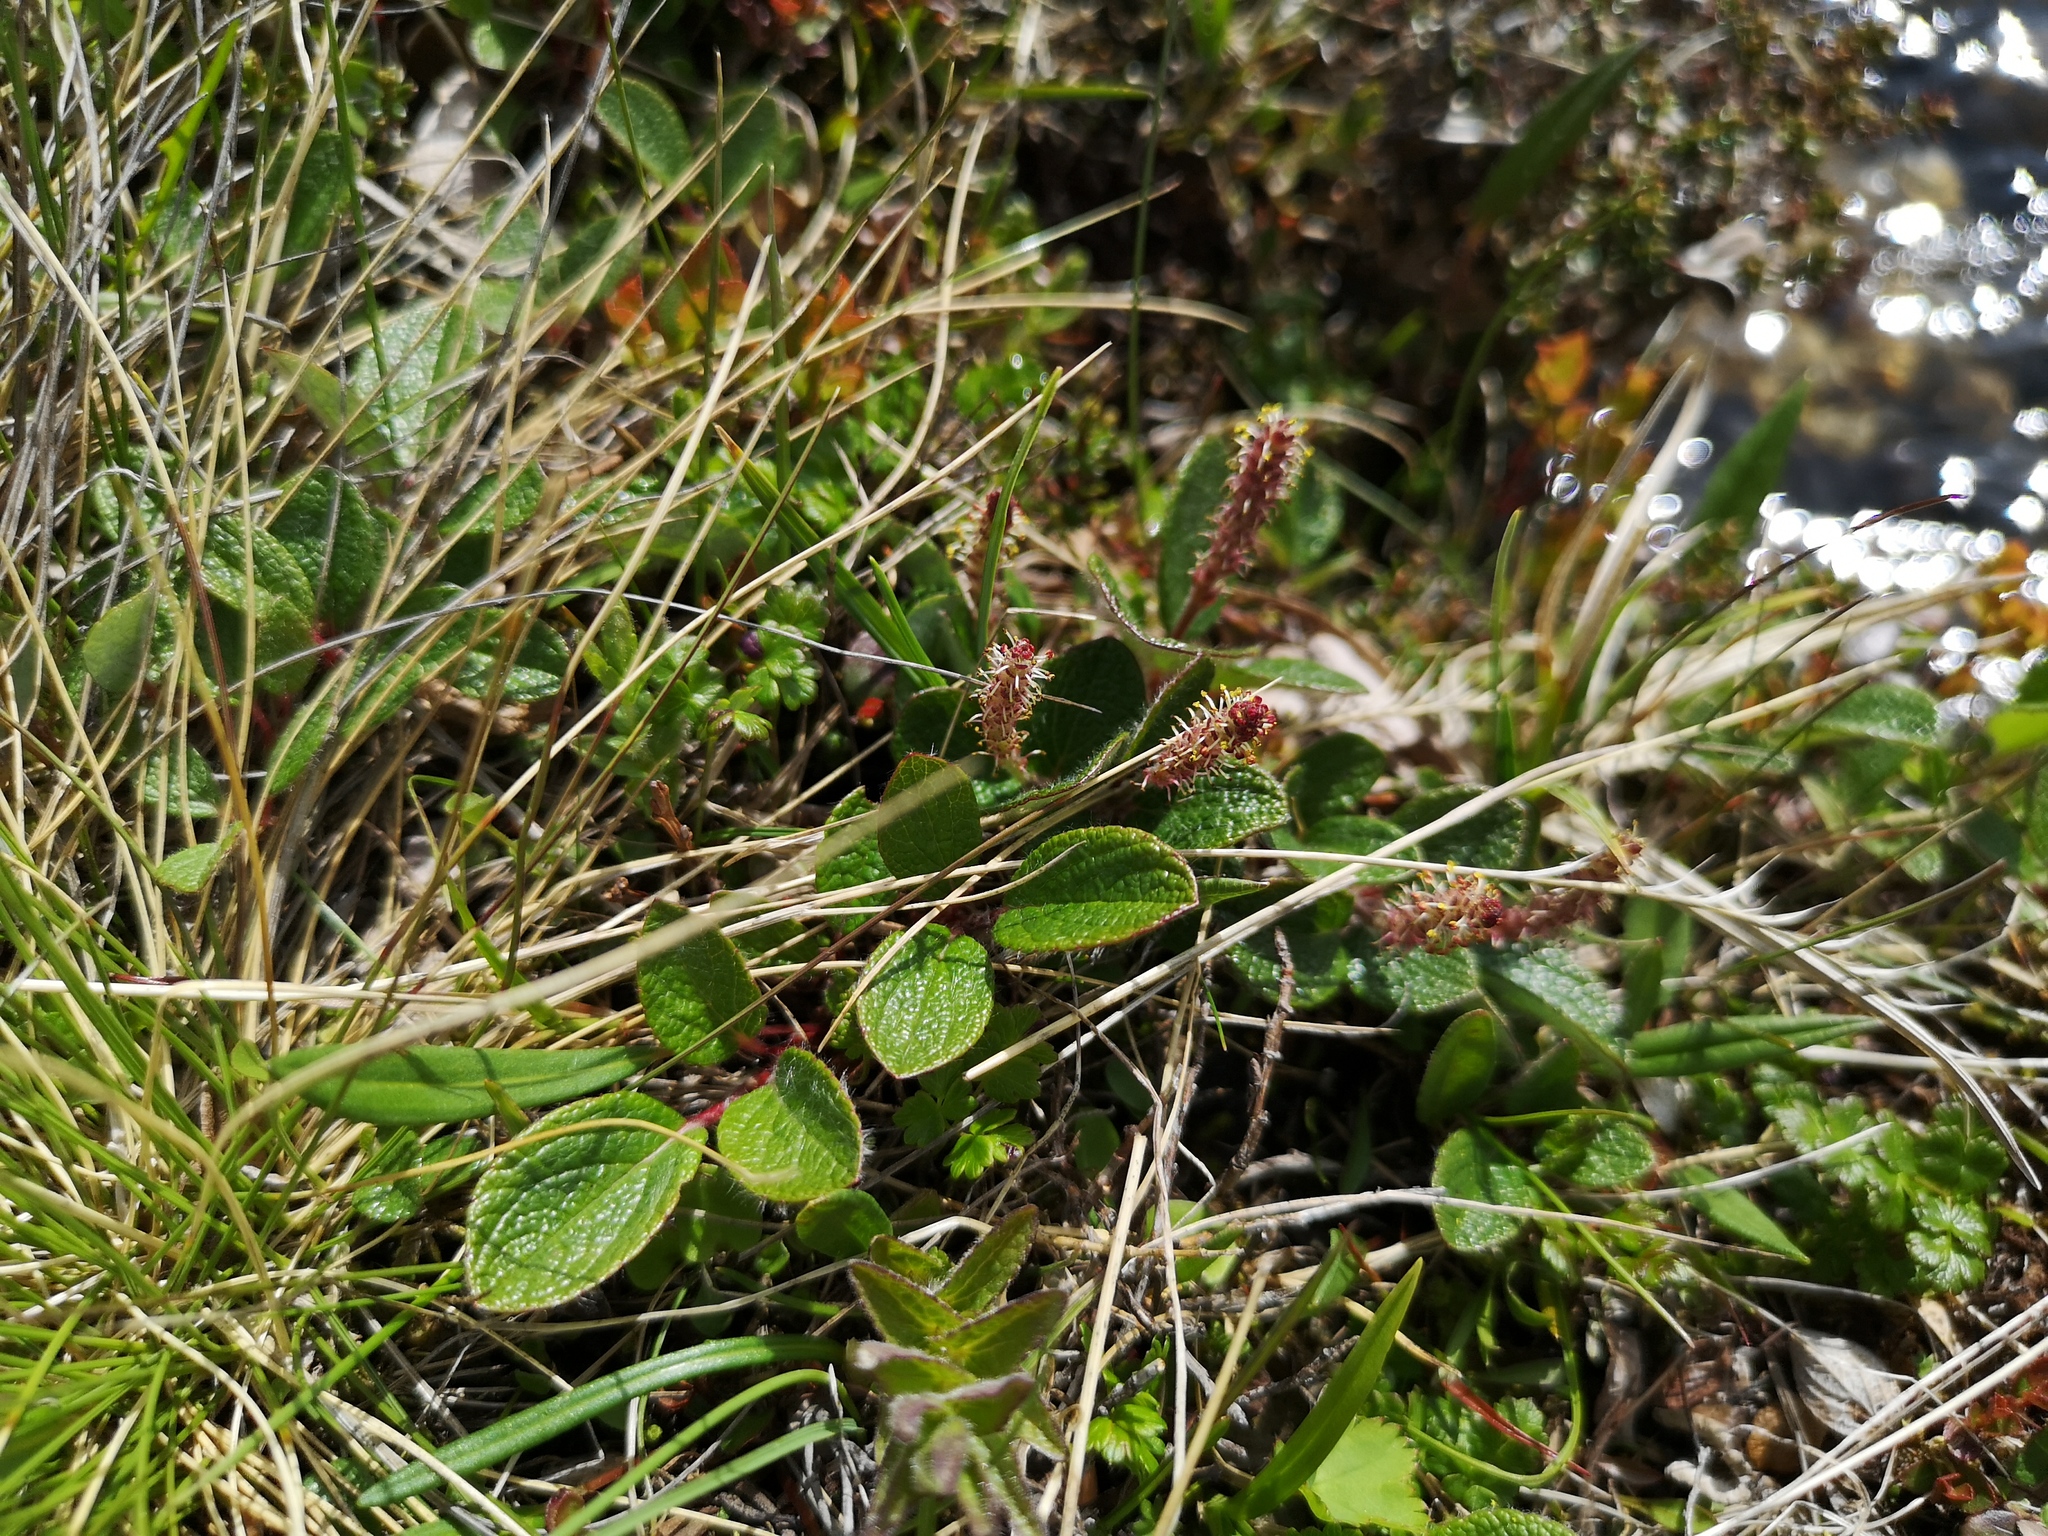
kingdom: Plantae
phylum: Tracheophyta
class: Magnoliopsida
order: Malpighiales
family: Salicaceae
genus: Salix
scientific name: Salix reticulata
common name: Net-leaved willow
